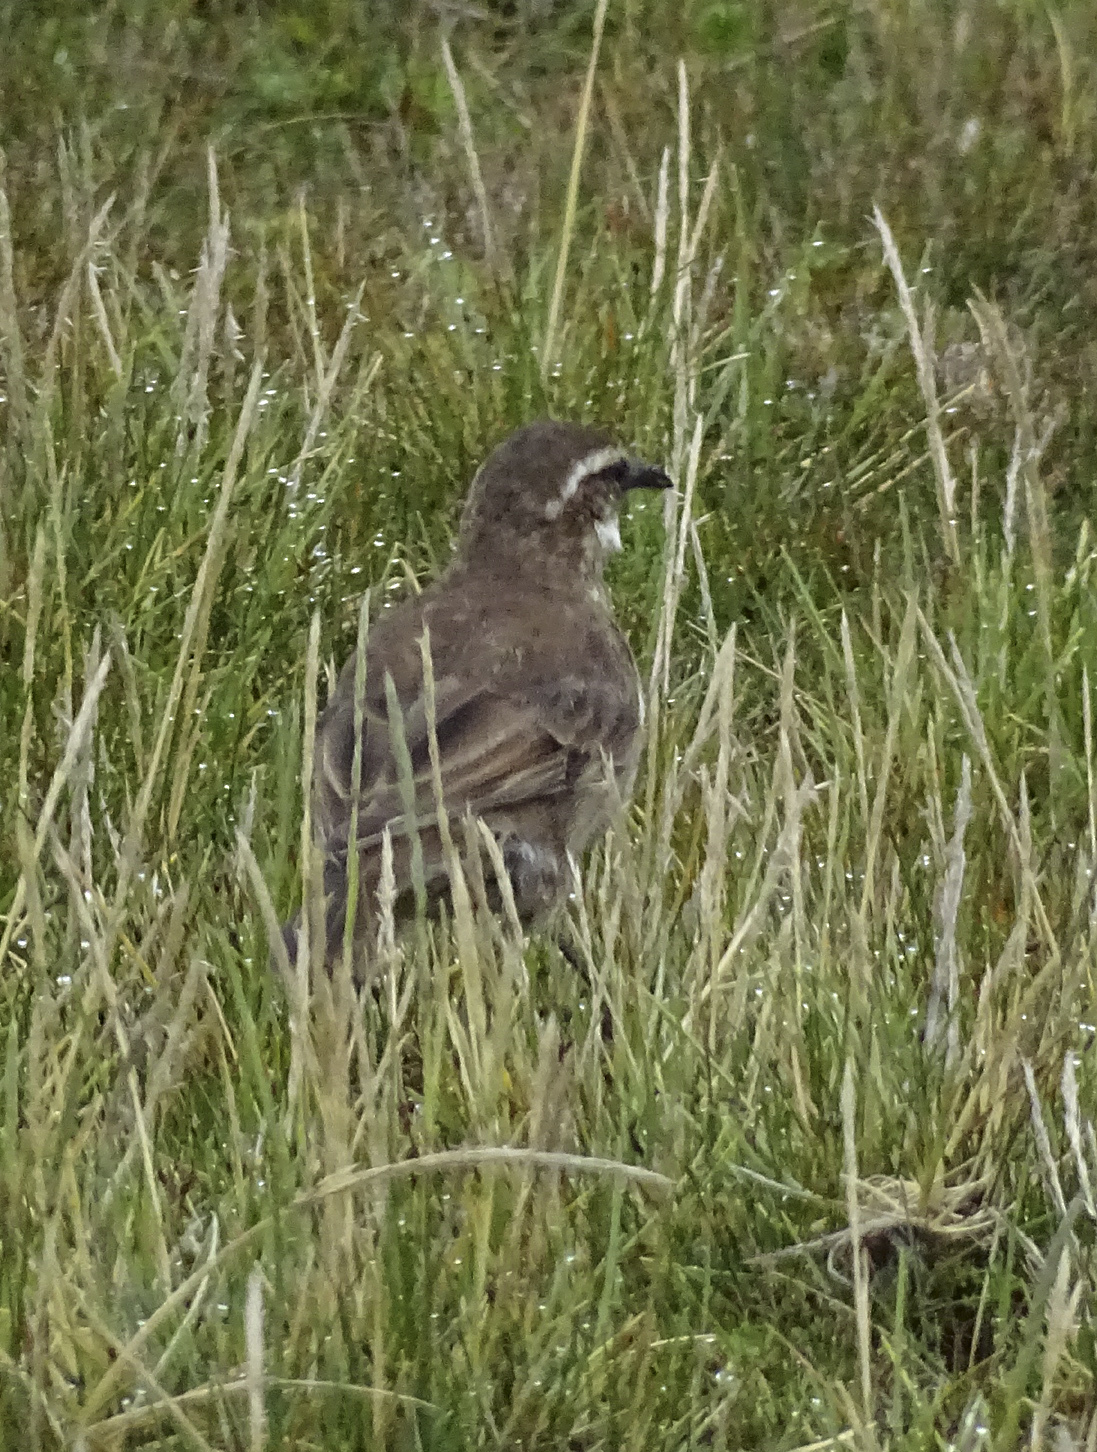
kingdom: Animalia
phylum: Chordata
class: Aves
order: Passeriformes
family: Furnariidae
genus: Cinclodes
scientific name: Cinclodes excelsior
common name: Stout-billed cinclodes
